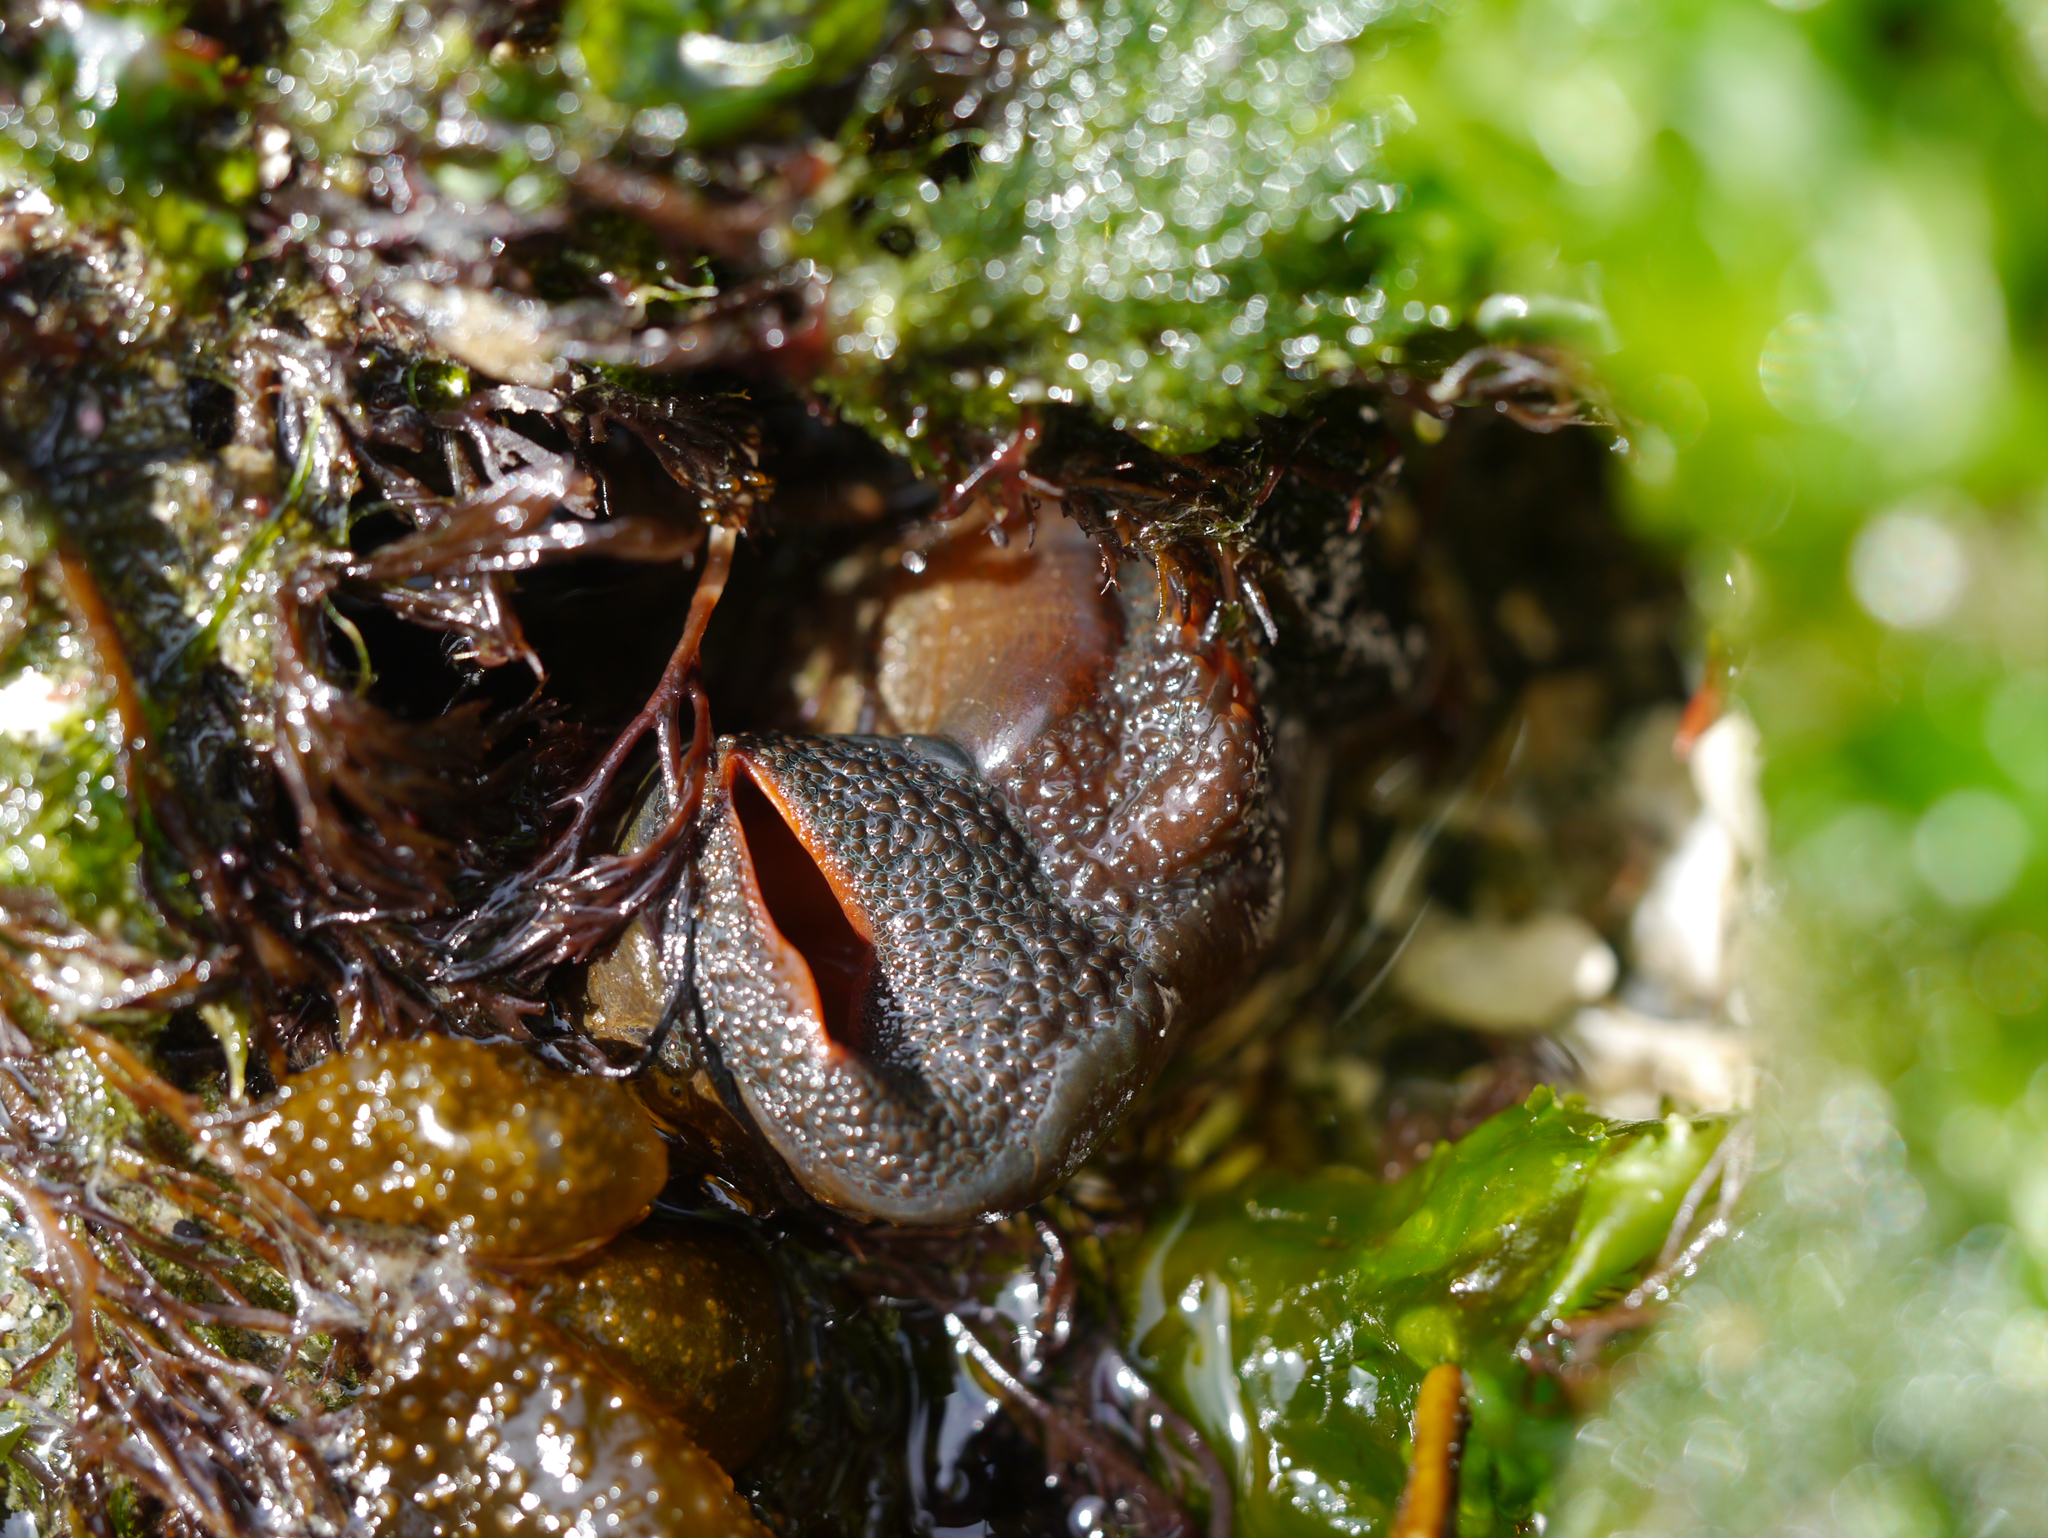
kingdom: Animalia
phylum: Mollusca
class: Bivalvia
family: Lyonsiidae
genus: Entodesma
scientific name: Entodesma navicula
